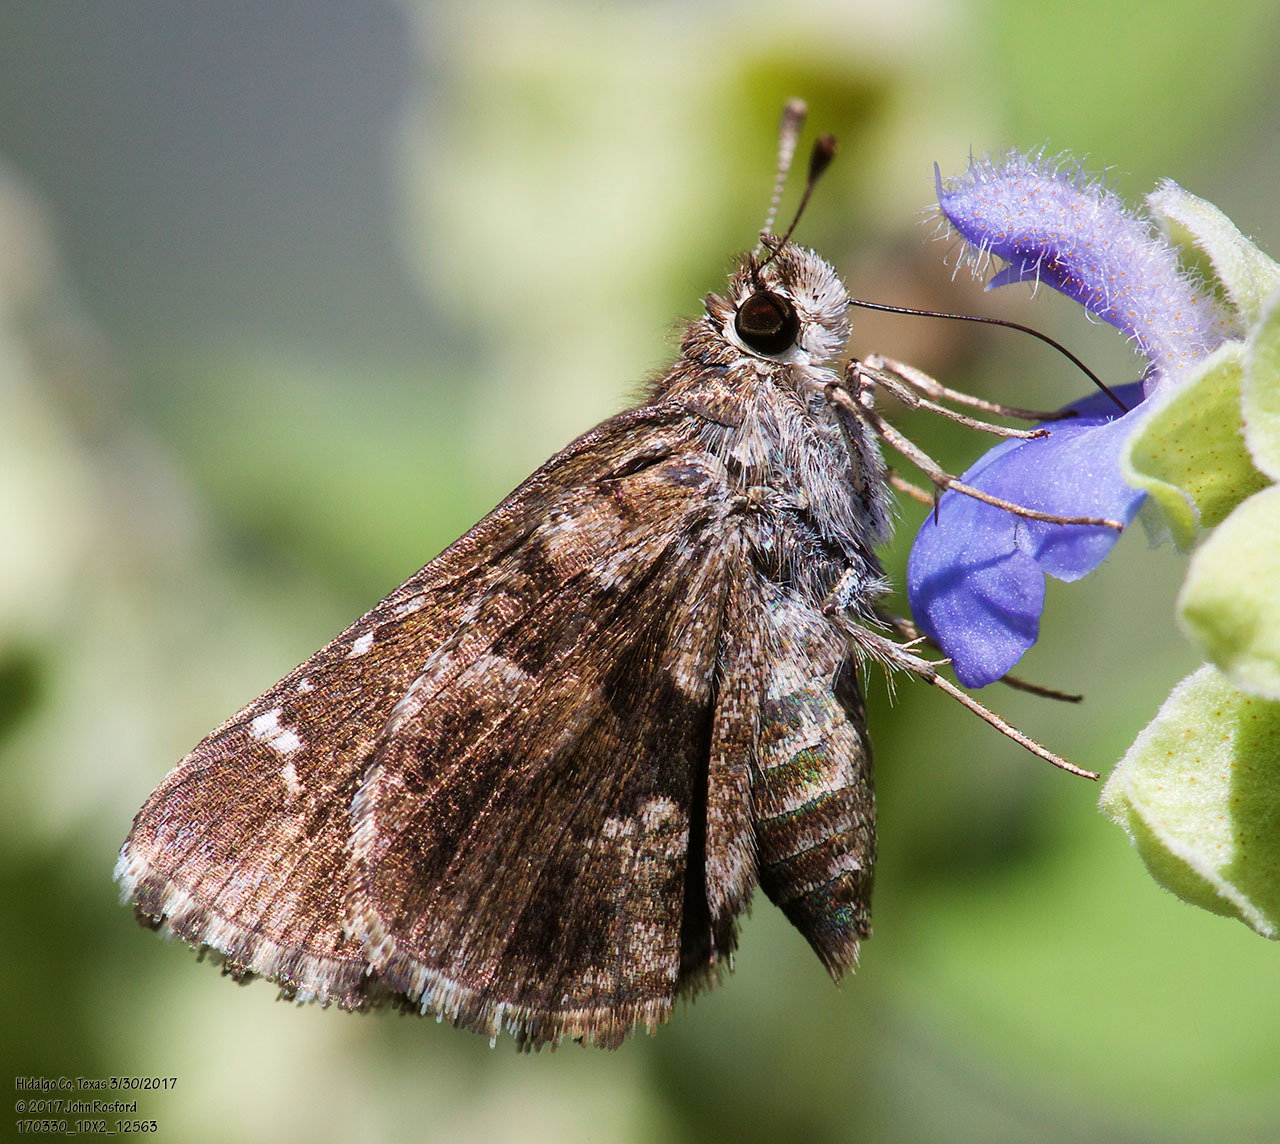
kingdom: Animalia
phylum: Arthropoda
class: Insecta
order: Lepidoptera
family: Hesperiidae
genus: Mastor
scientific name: Mastor nysa
